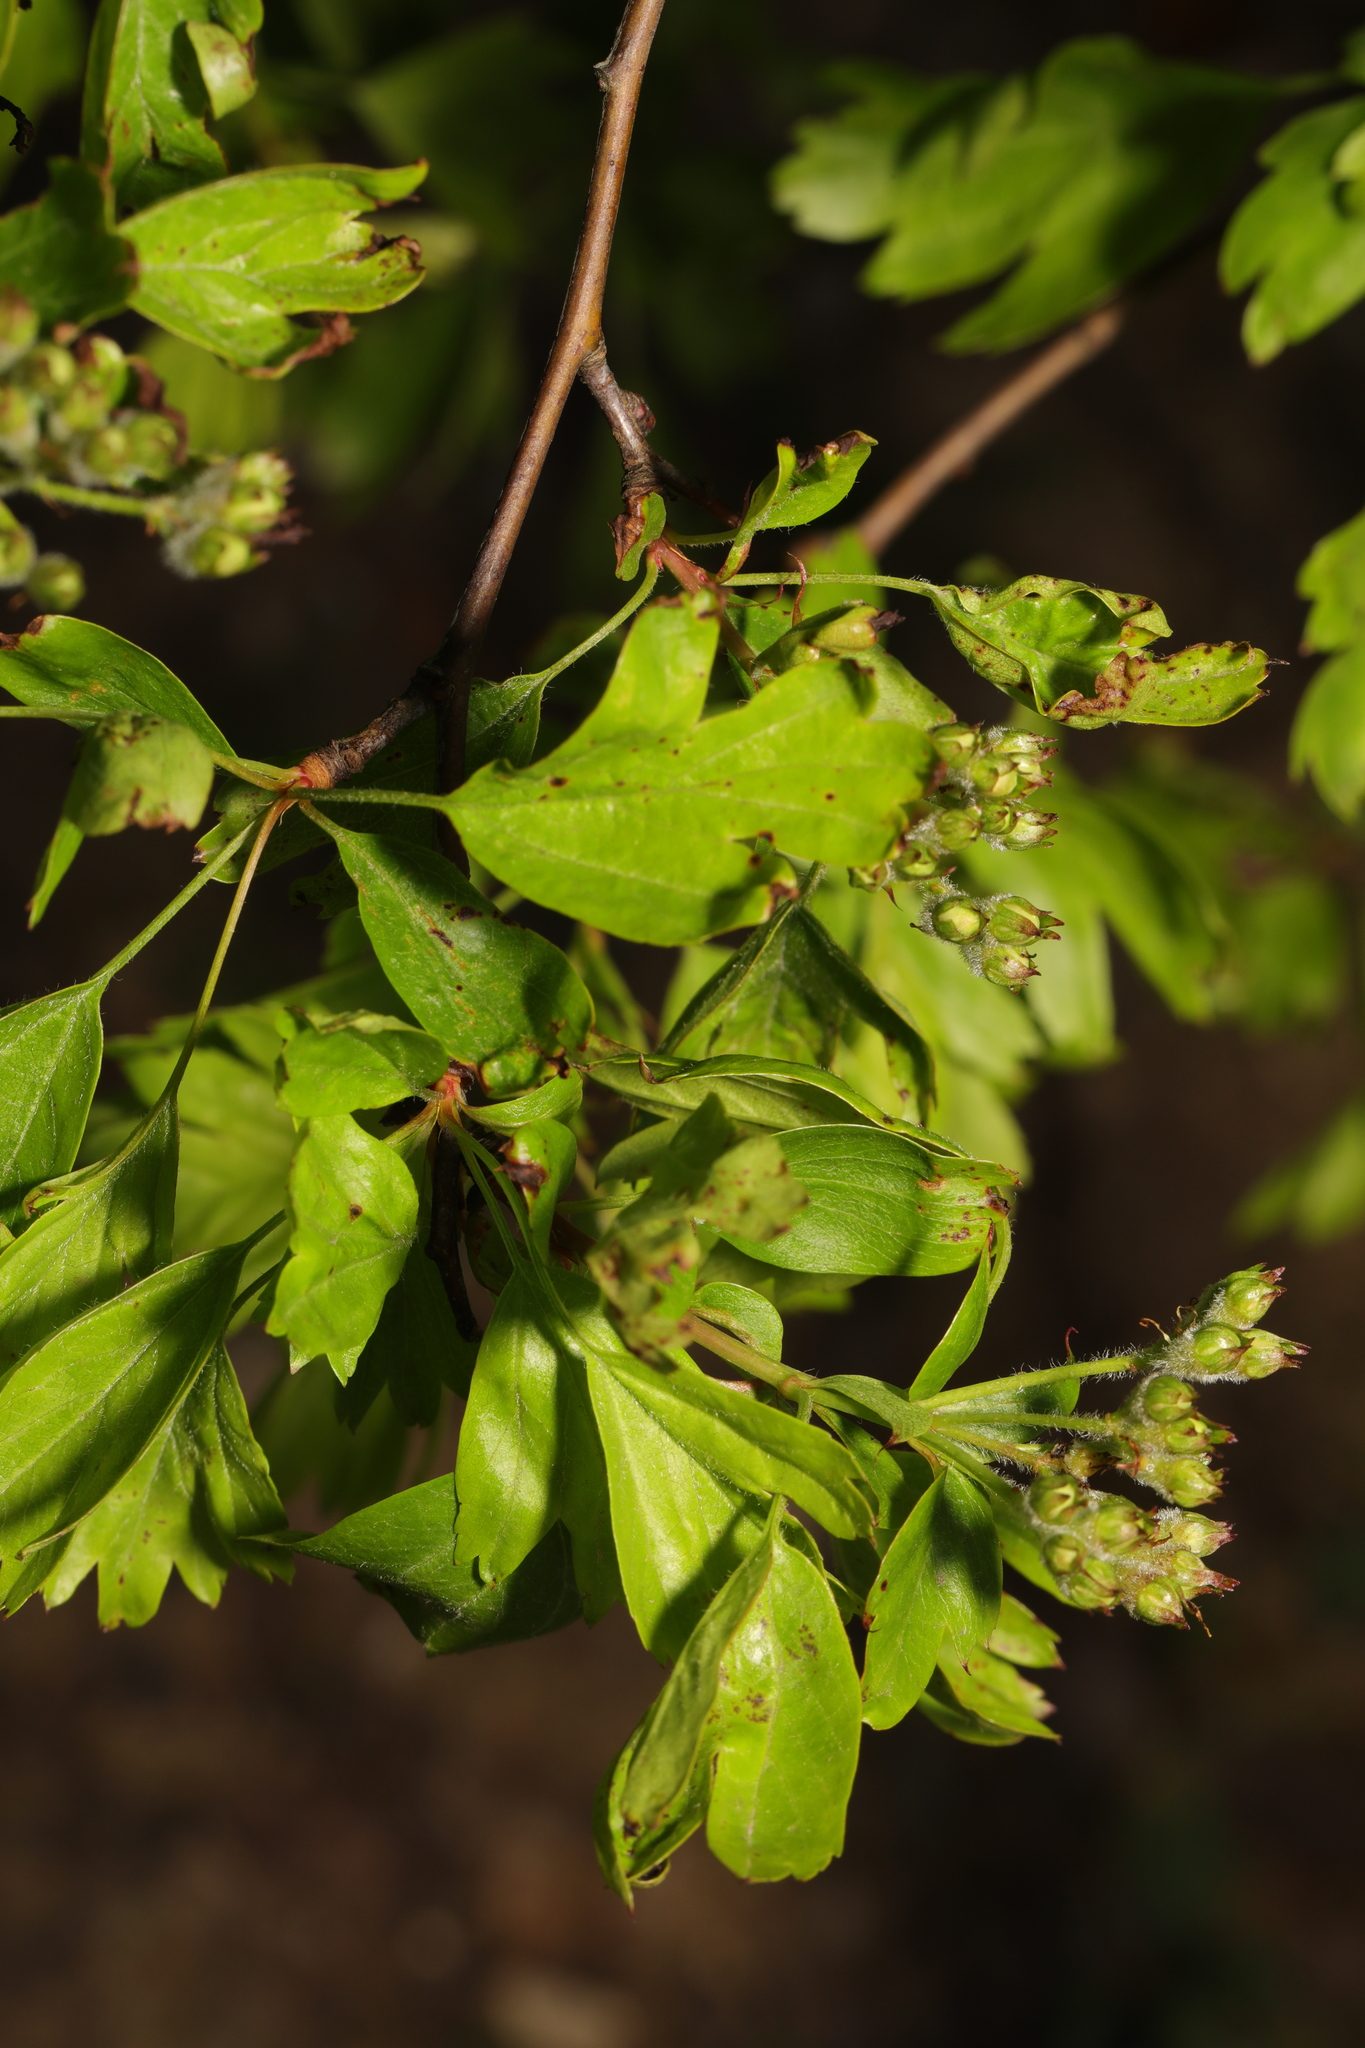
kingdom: Plantae
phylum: Tracheophyta
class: Magnoliopsida
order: Rosales
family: Rosaceae
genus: Crataegus
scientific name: Crataegus monogyna
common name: Hawthorn
